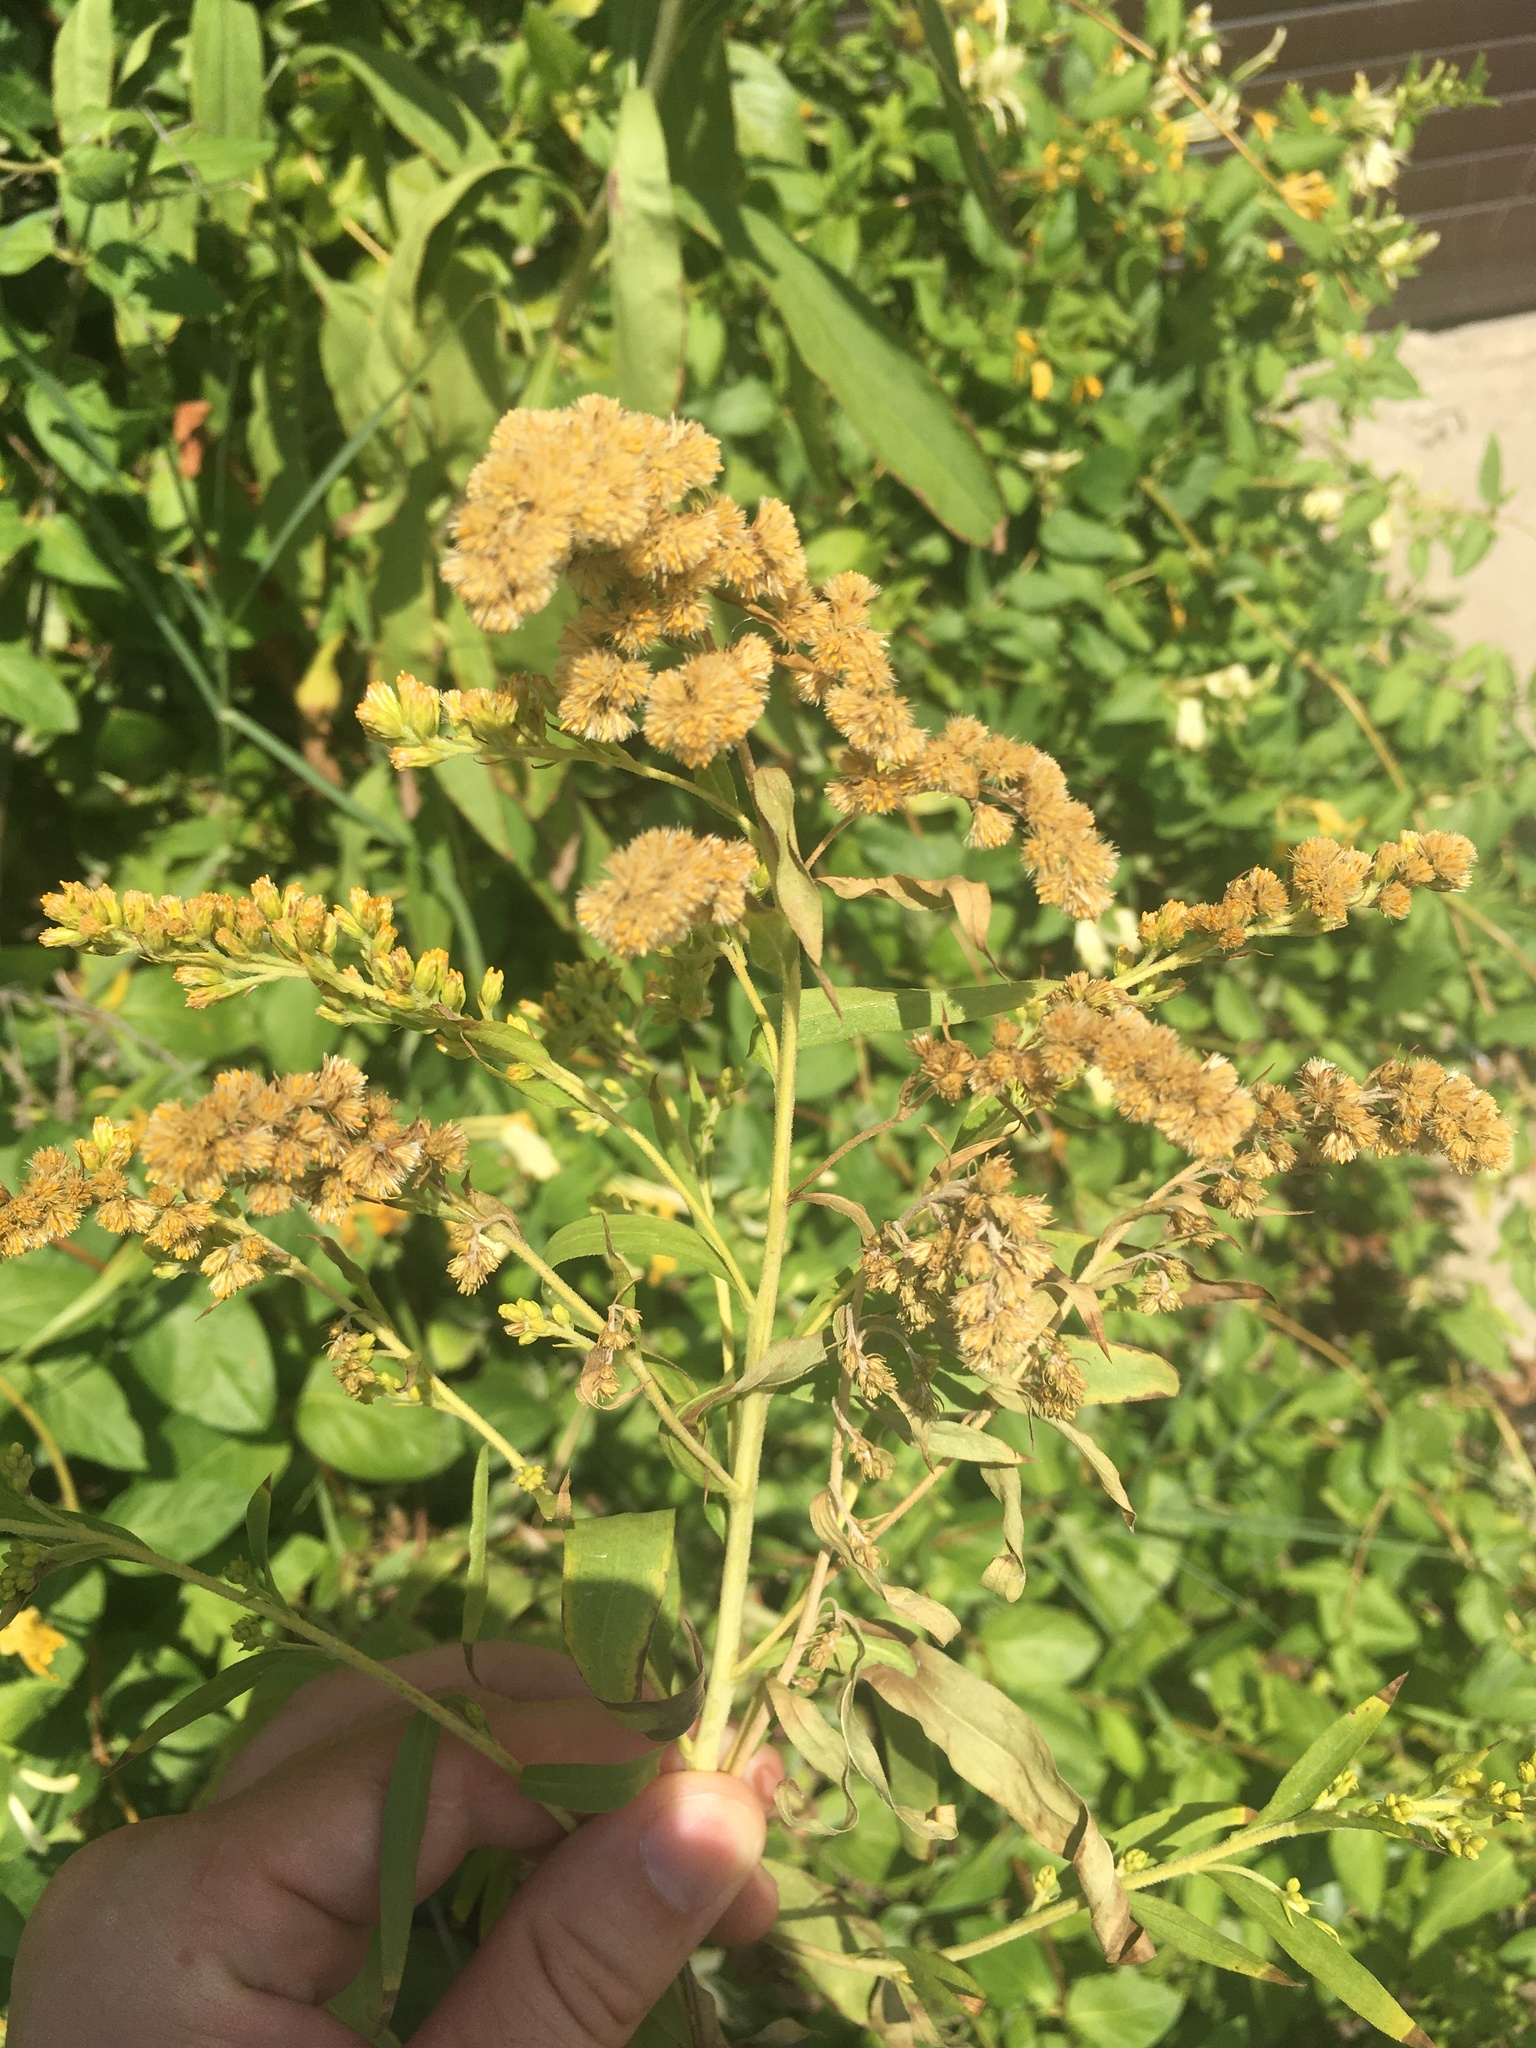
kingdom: Plantae
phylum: Tracheophyta
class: Magnoliopsida
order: Asterales
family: Asteraceae
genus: Solidago
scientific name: Solidago canadensis
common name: Canada goldenrod
